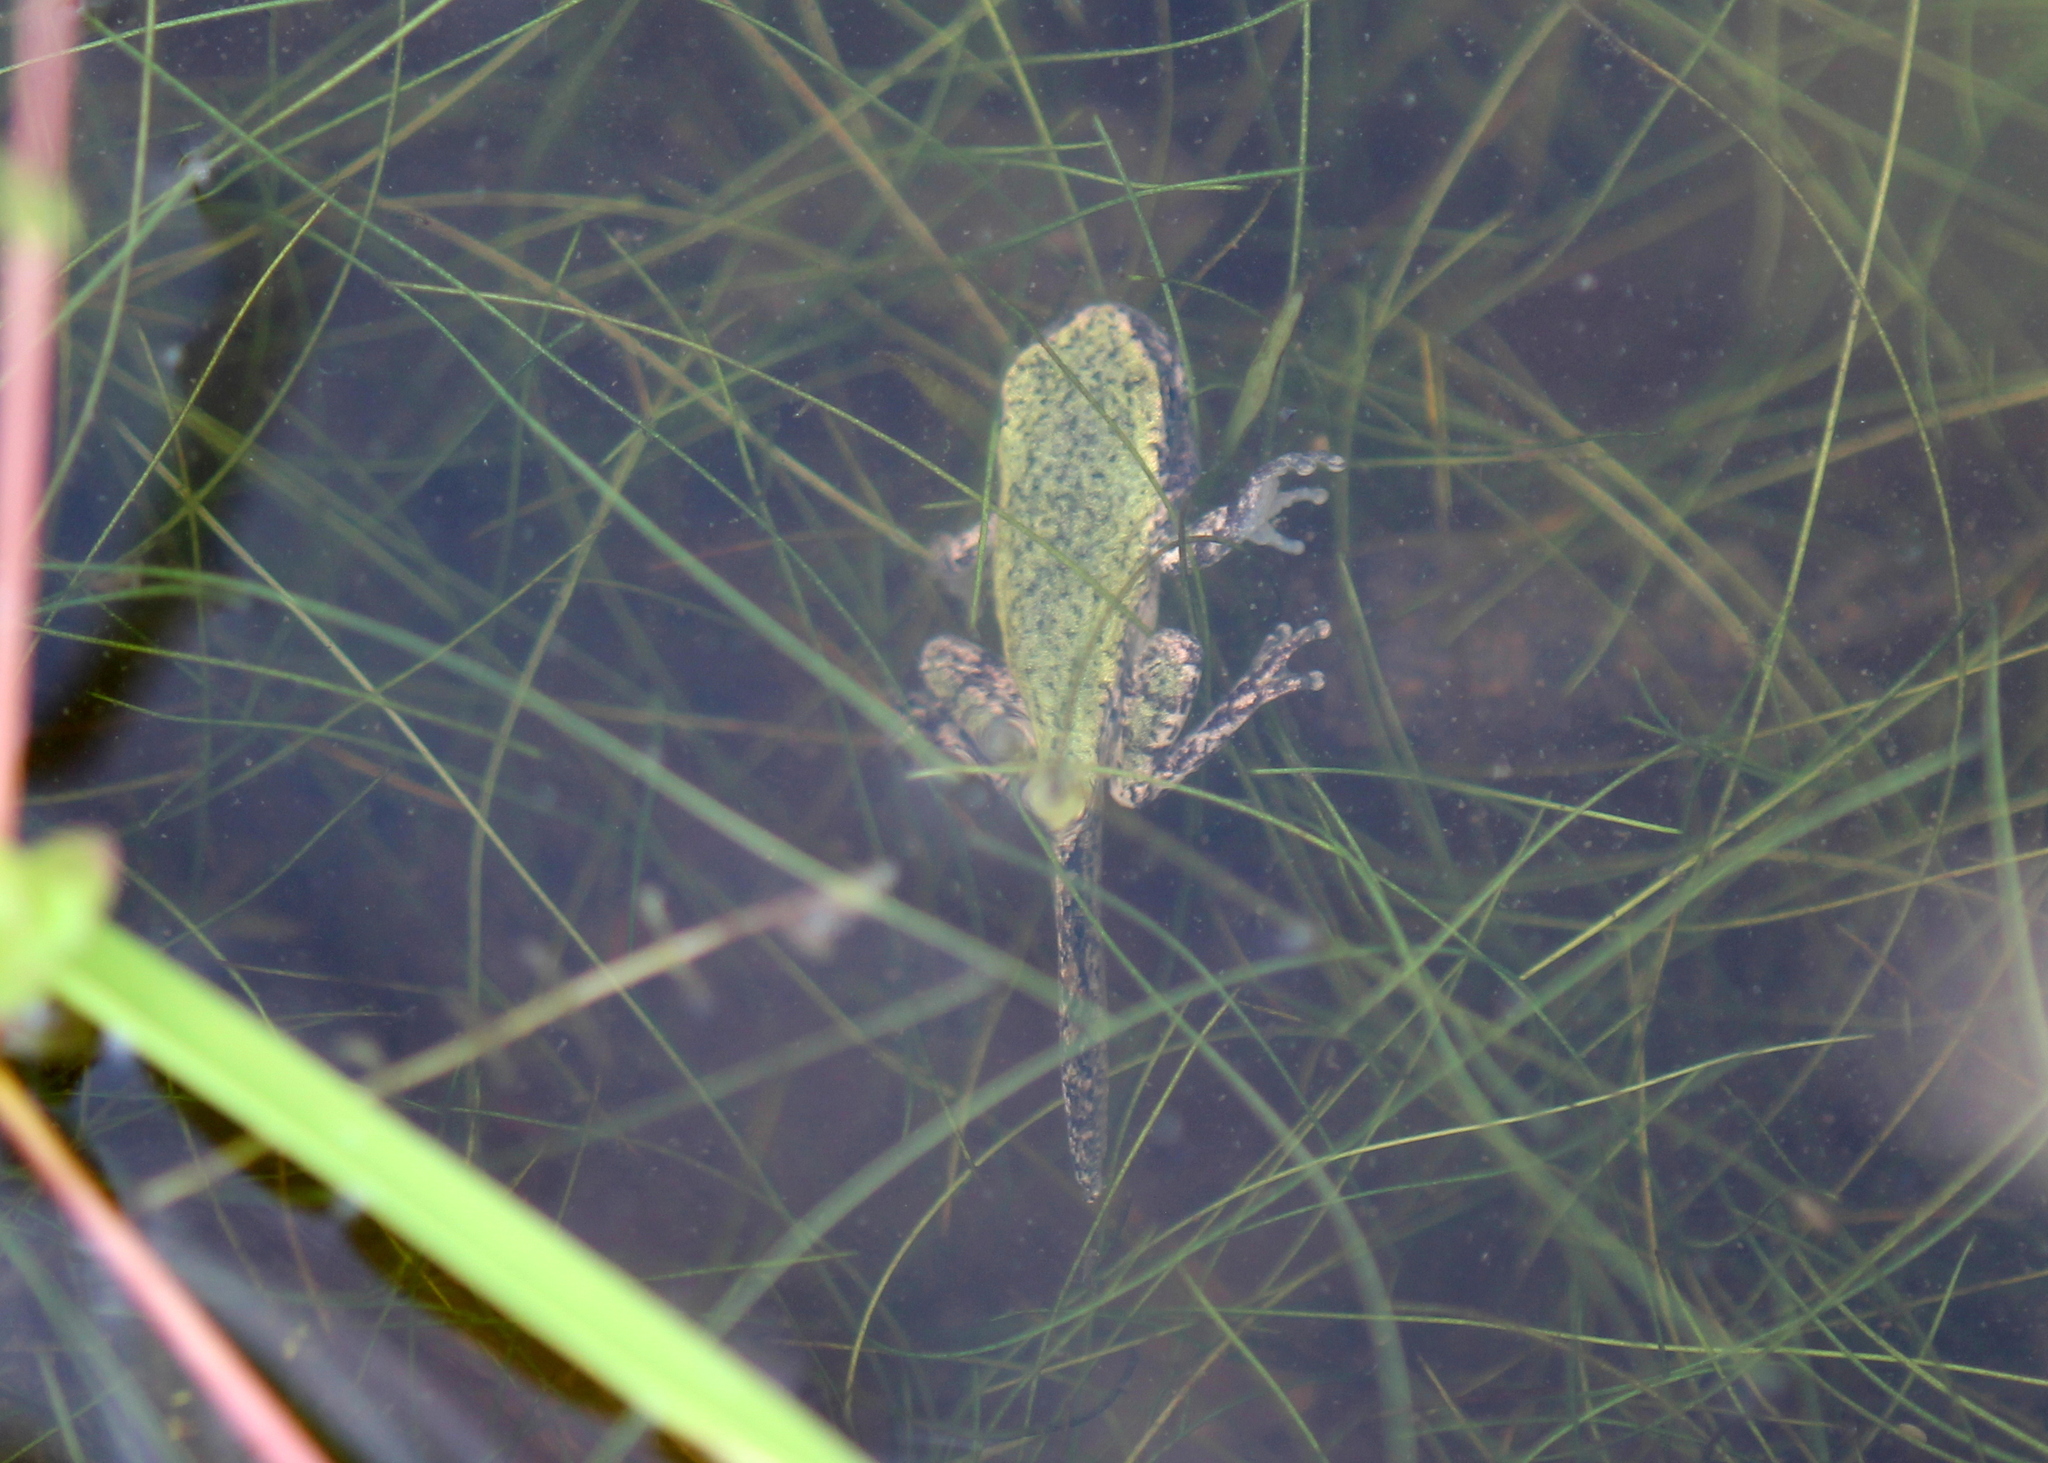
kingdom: Animalia
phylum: Chordata
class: Amphibia
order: Anura
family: Hylidae
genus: Dryophytes
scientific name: Dryophytes versicolor
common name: Gray treefrog
